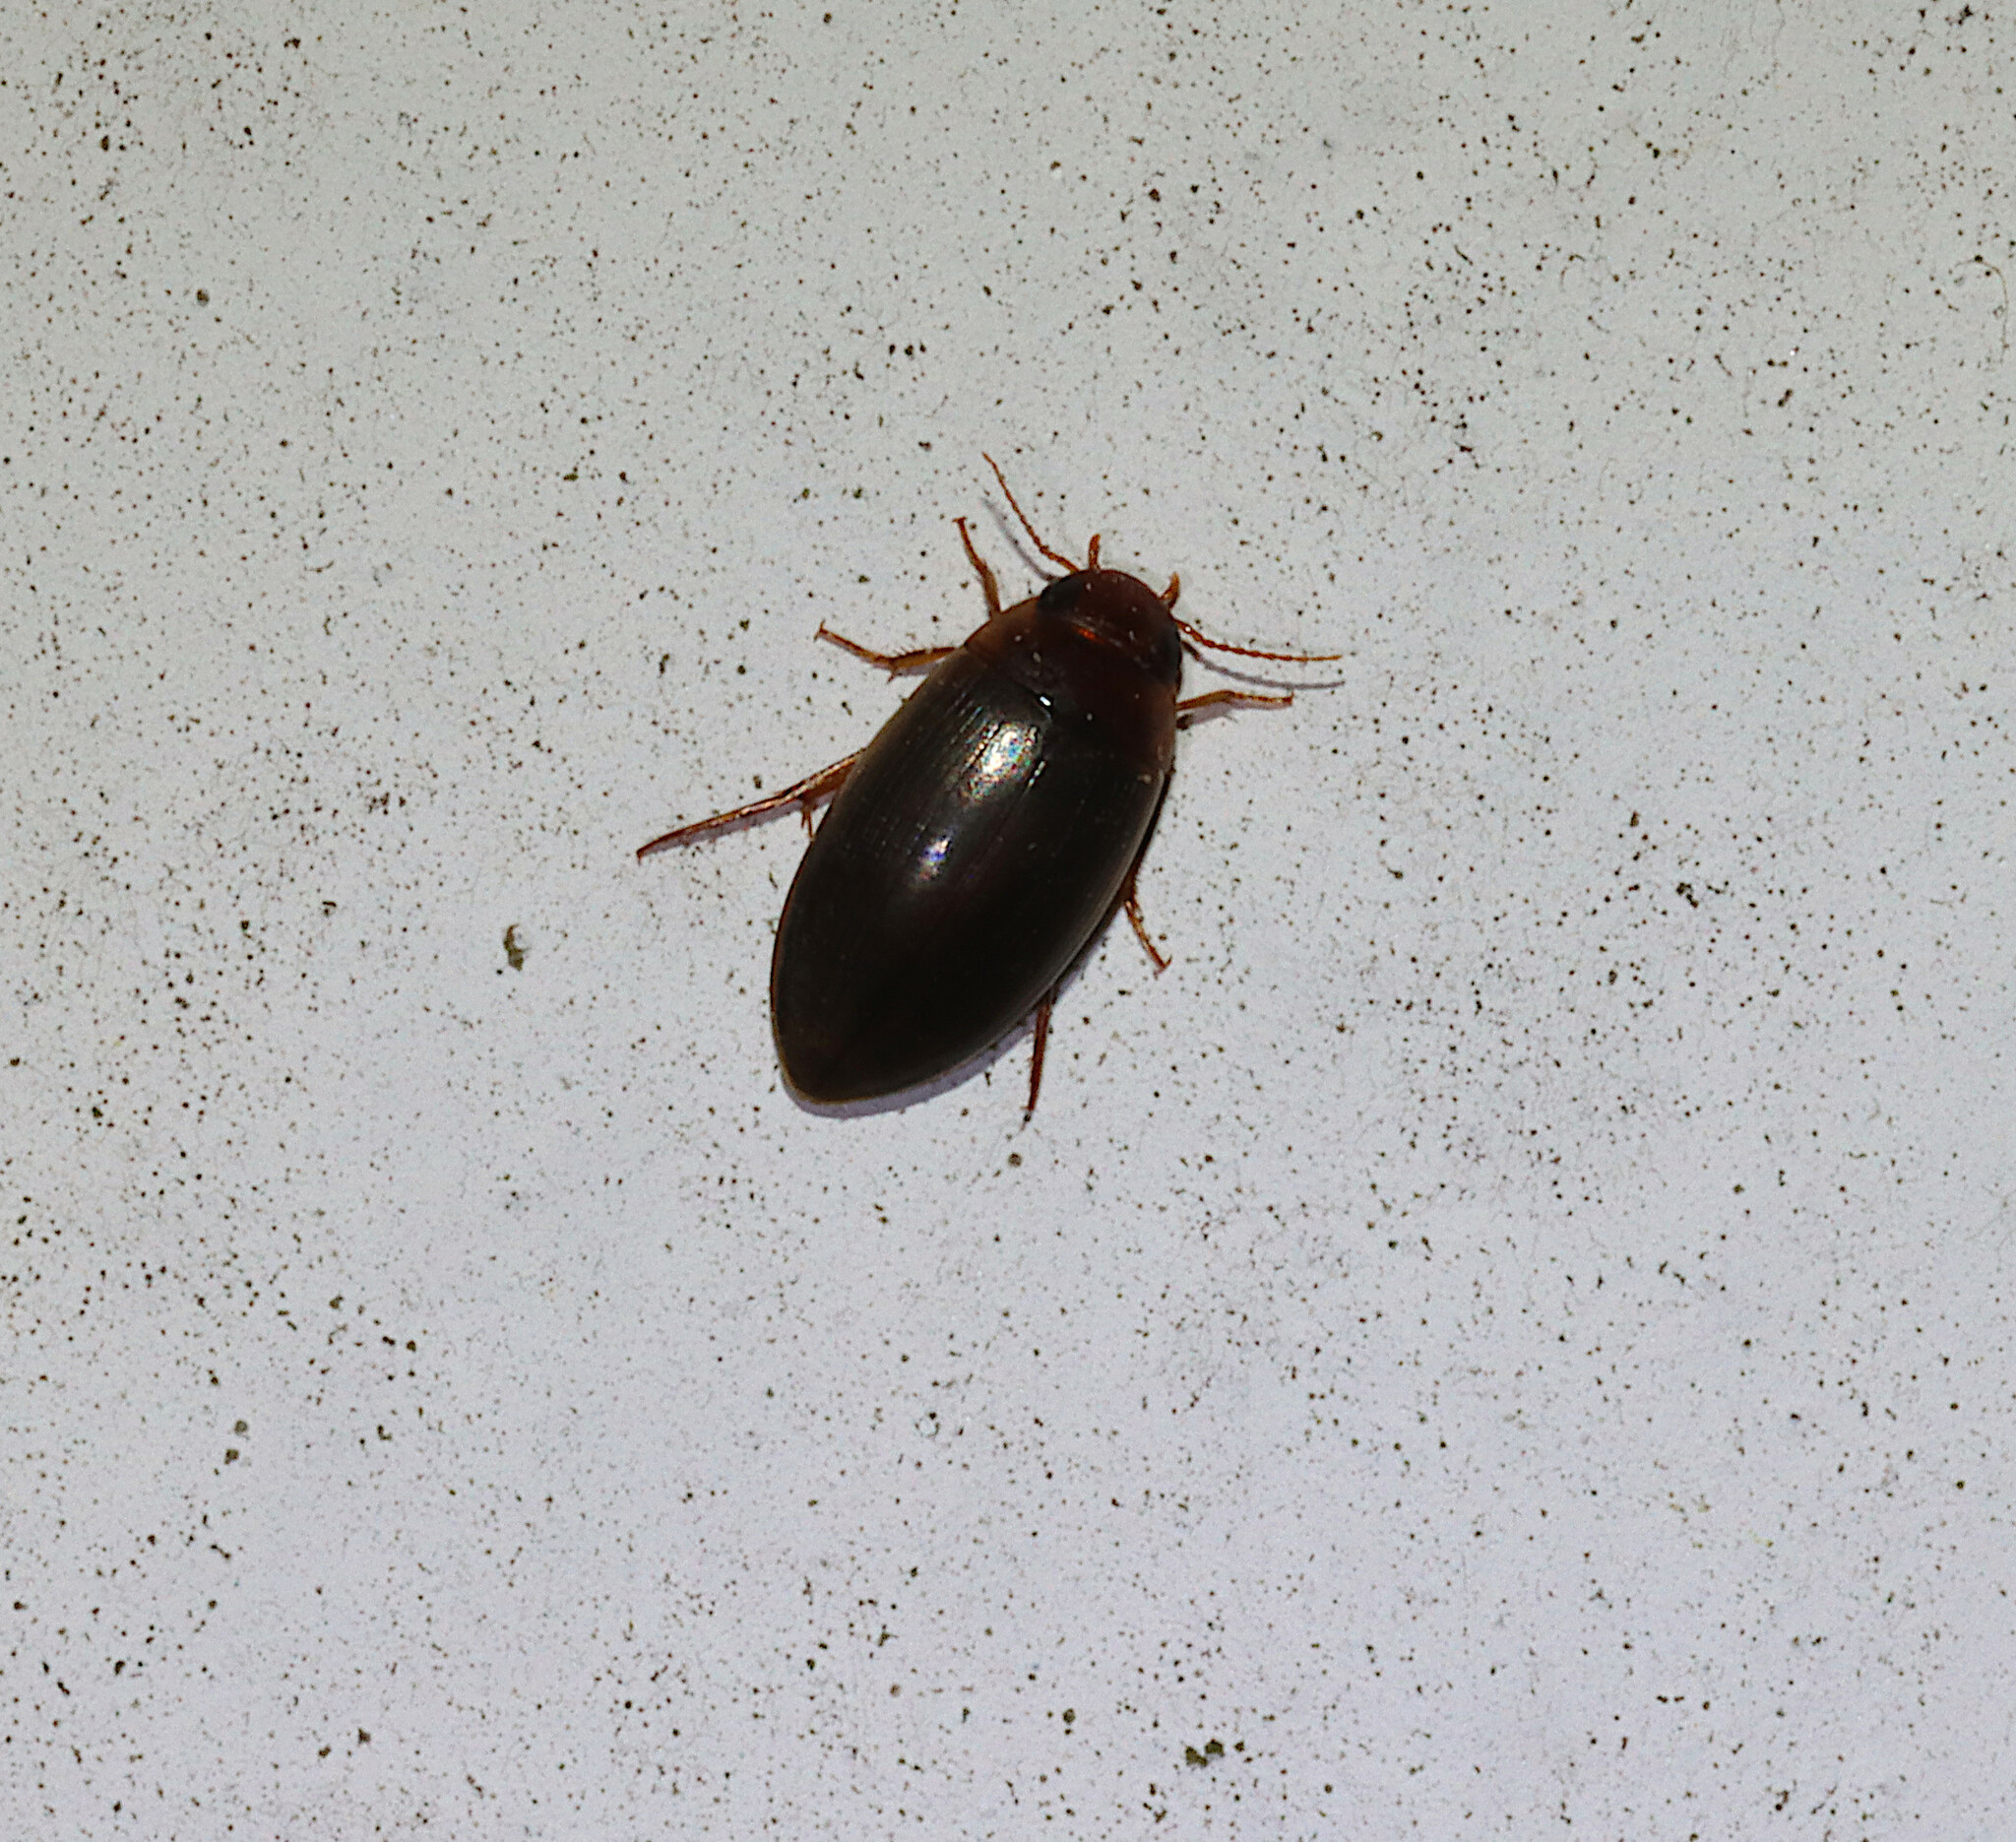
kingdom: Animalia
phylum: Arthropoda
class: Insecta
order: Coleoptera
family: Dytiscidae
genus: Copelatus
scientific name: Copelatus chevrolati
